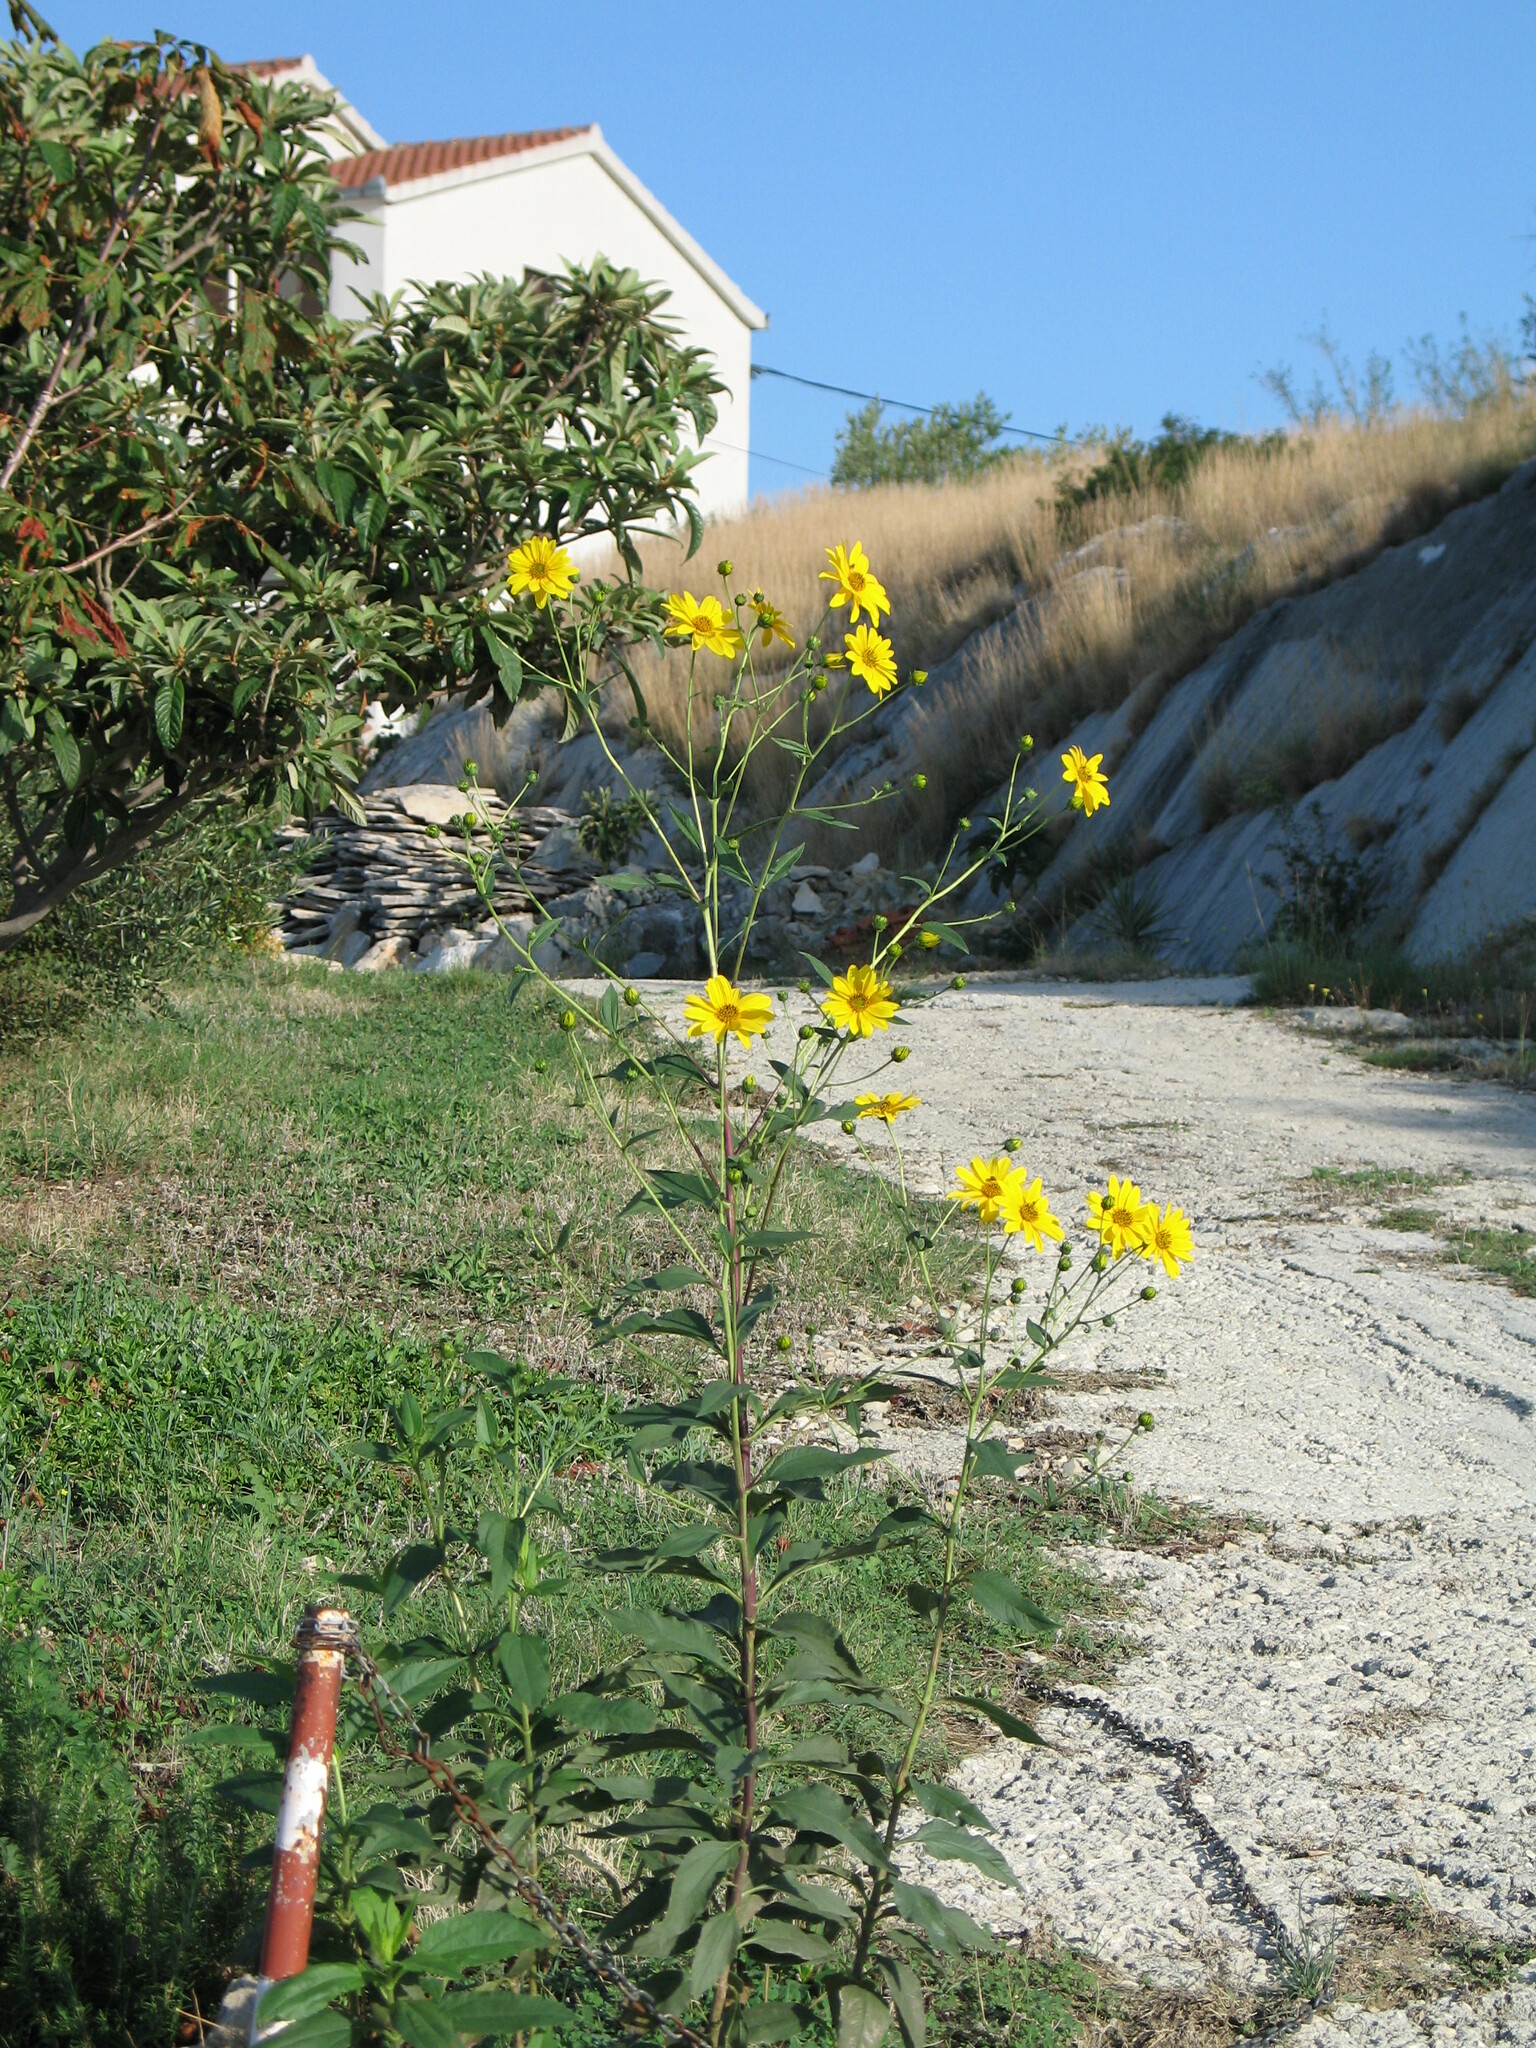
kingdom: Plantae
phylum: Tracheophyta
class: Magnoliopsida
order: Asterales
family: Asteraceae
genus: Helianthus
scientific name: Helianthus tuberosus
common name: Jerusalem artichoke
